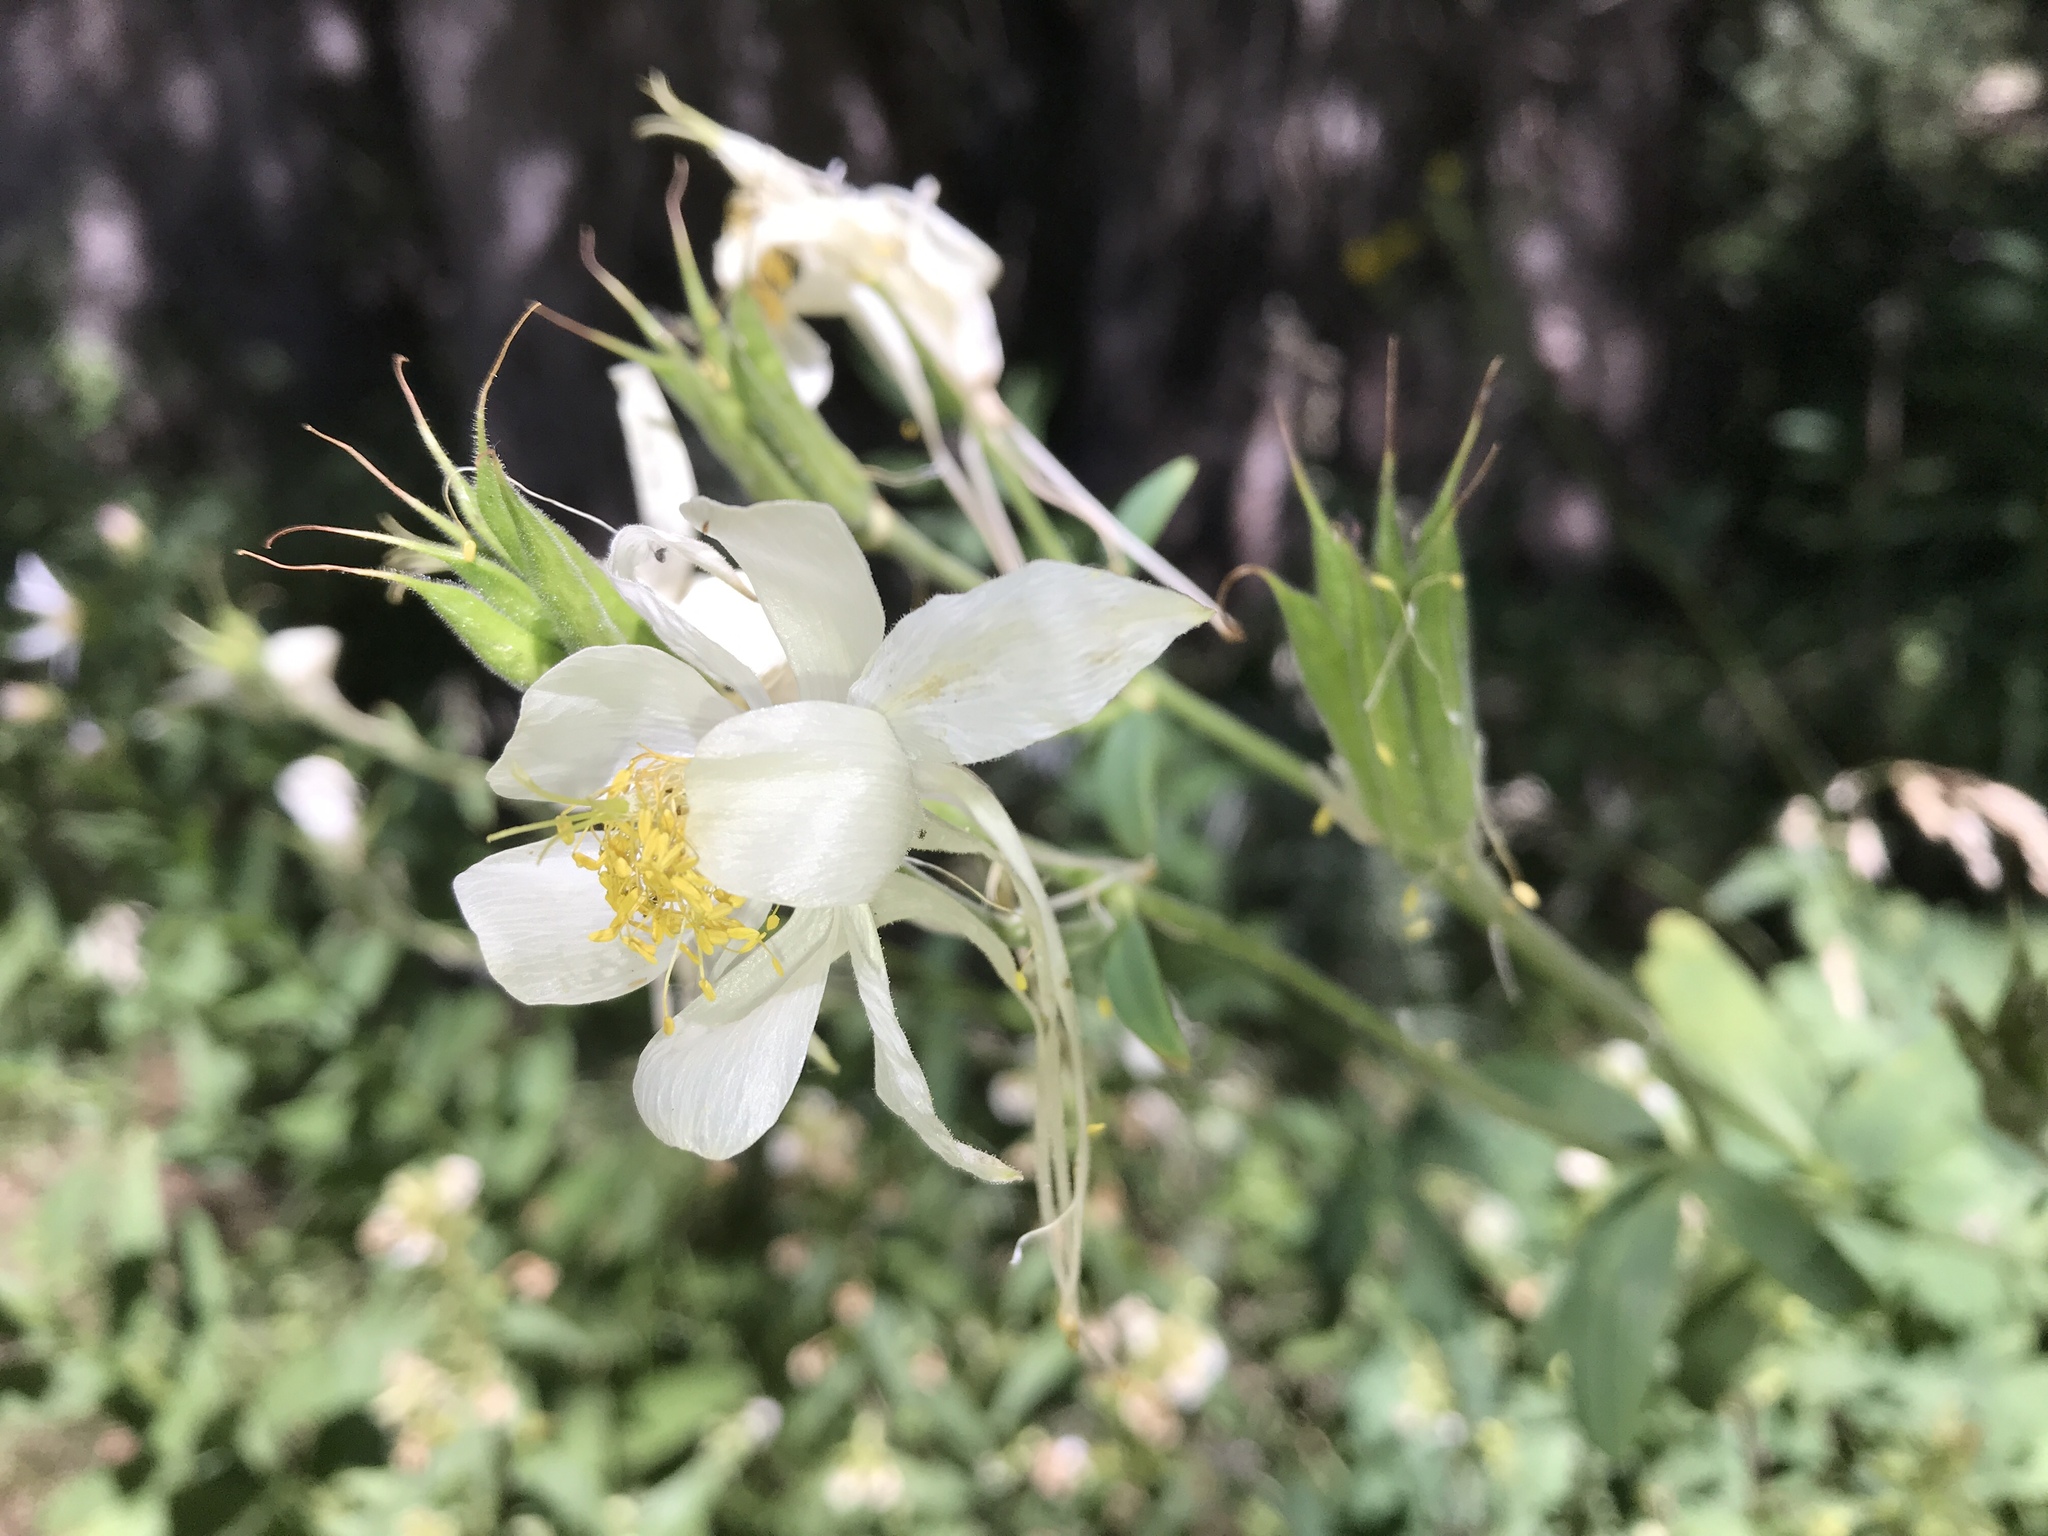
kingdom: Plantae
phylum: Tracheophyta
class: Magnoliopsida
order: Ranunculales
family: Ranunculaceae
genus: Aquilegia
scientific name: Aquilegia coerulea
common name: Rocky mountain columbine
